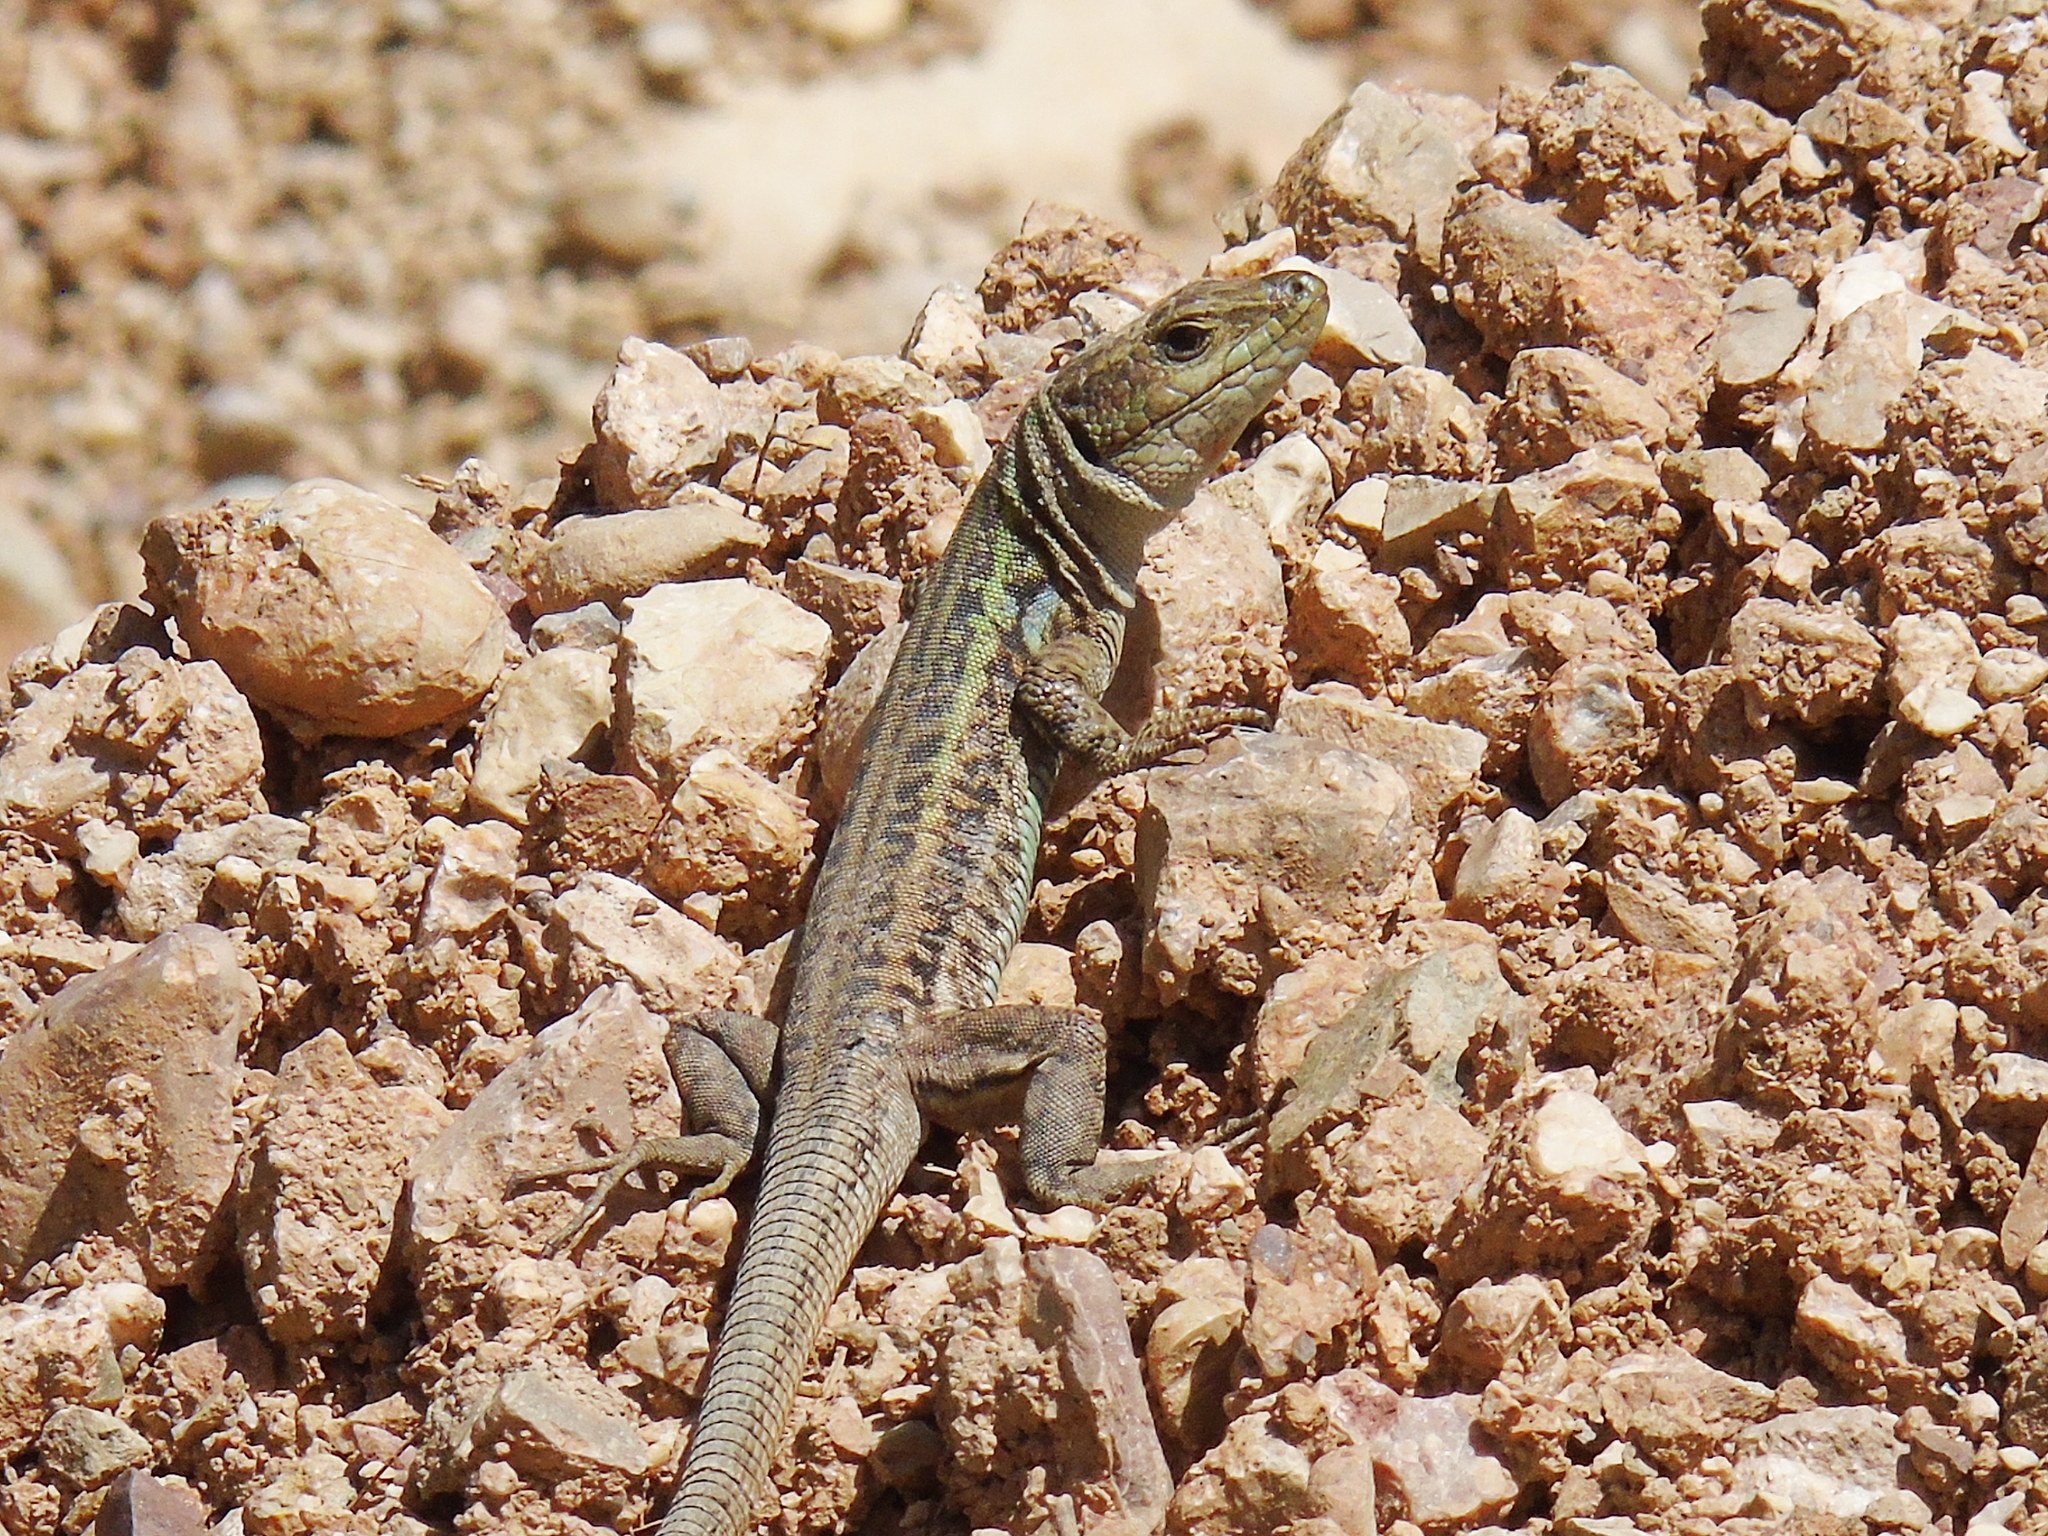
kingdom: Animalia
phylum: Chordata
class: Squamata
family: Lacertidae
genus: Podarcis
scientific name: Podarcis peloponnesiacus
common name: Peloponnese wall lizard
